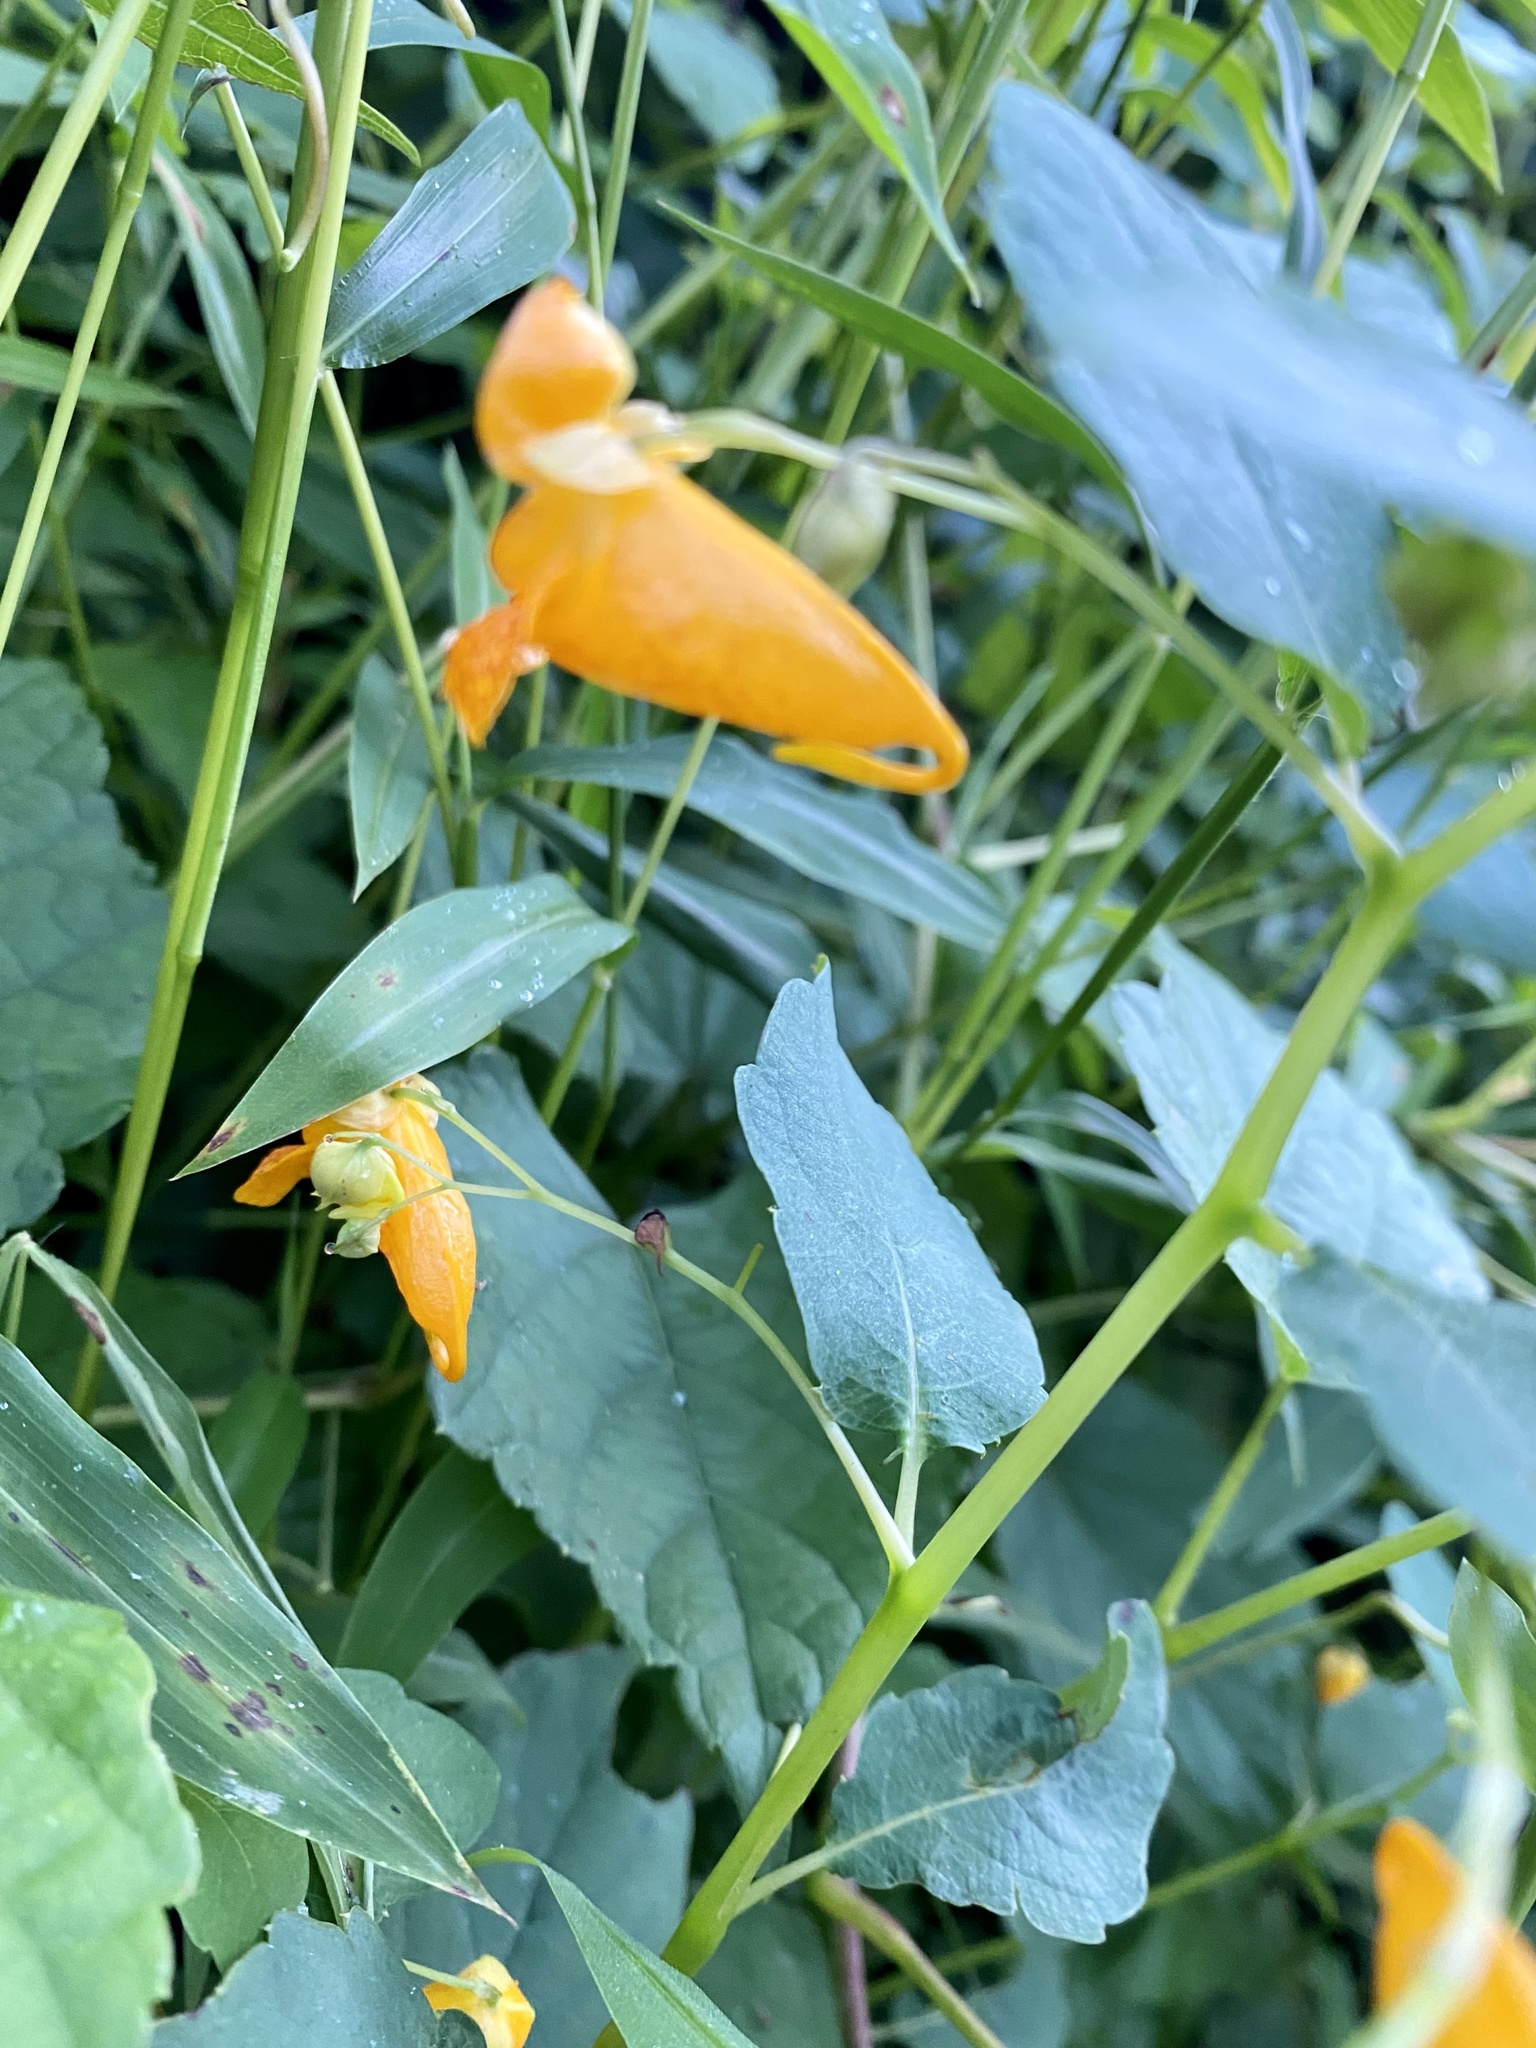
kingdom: Plantae
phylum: Tracheophyta
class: Magnoliopsida
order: Ericales
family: Balsaminaceae
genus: Impatiens
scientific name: Impatiens capensis
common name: Orange balsam
